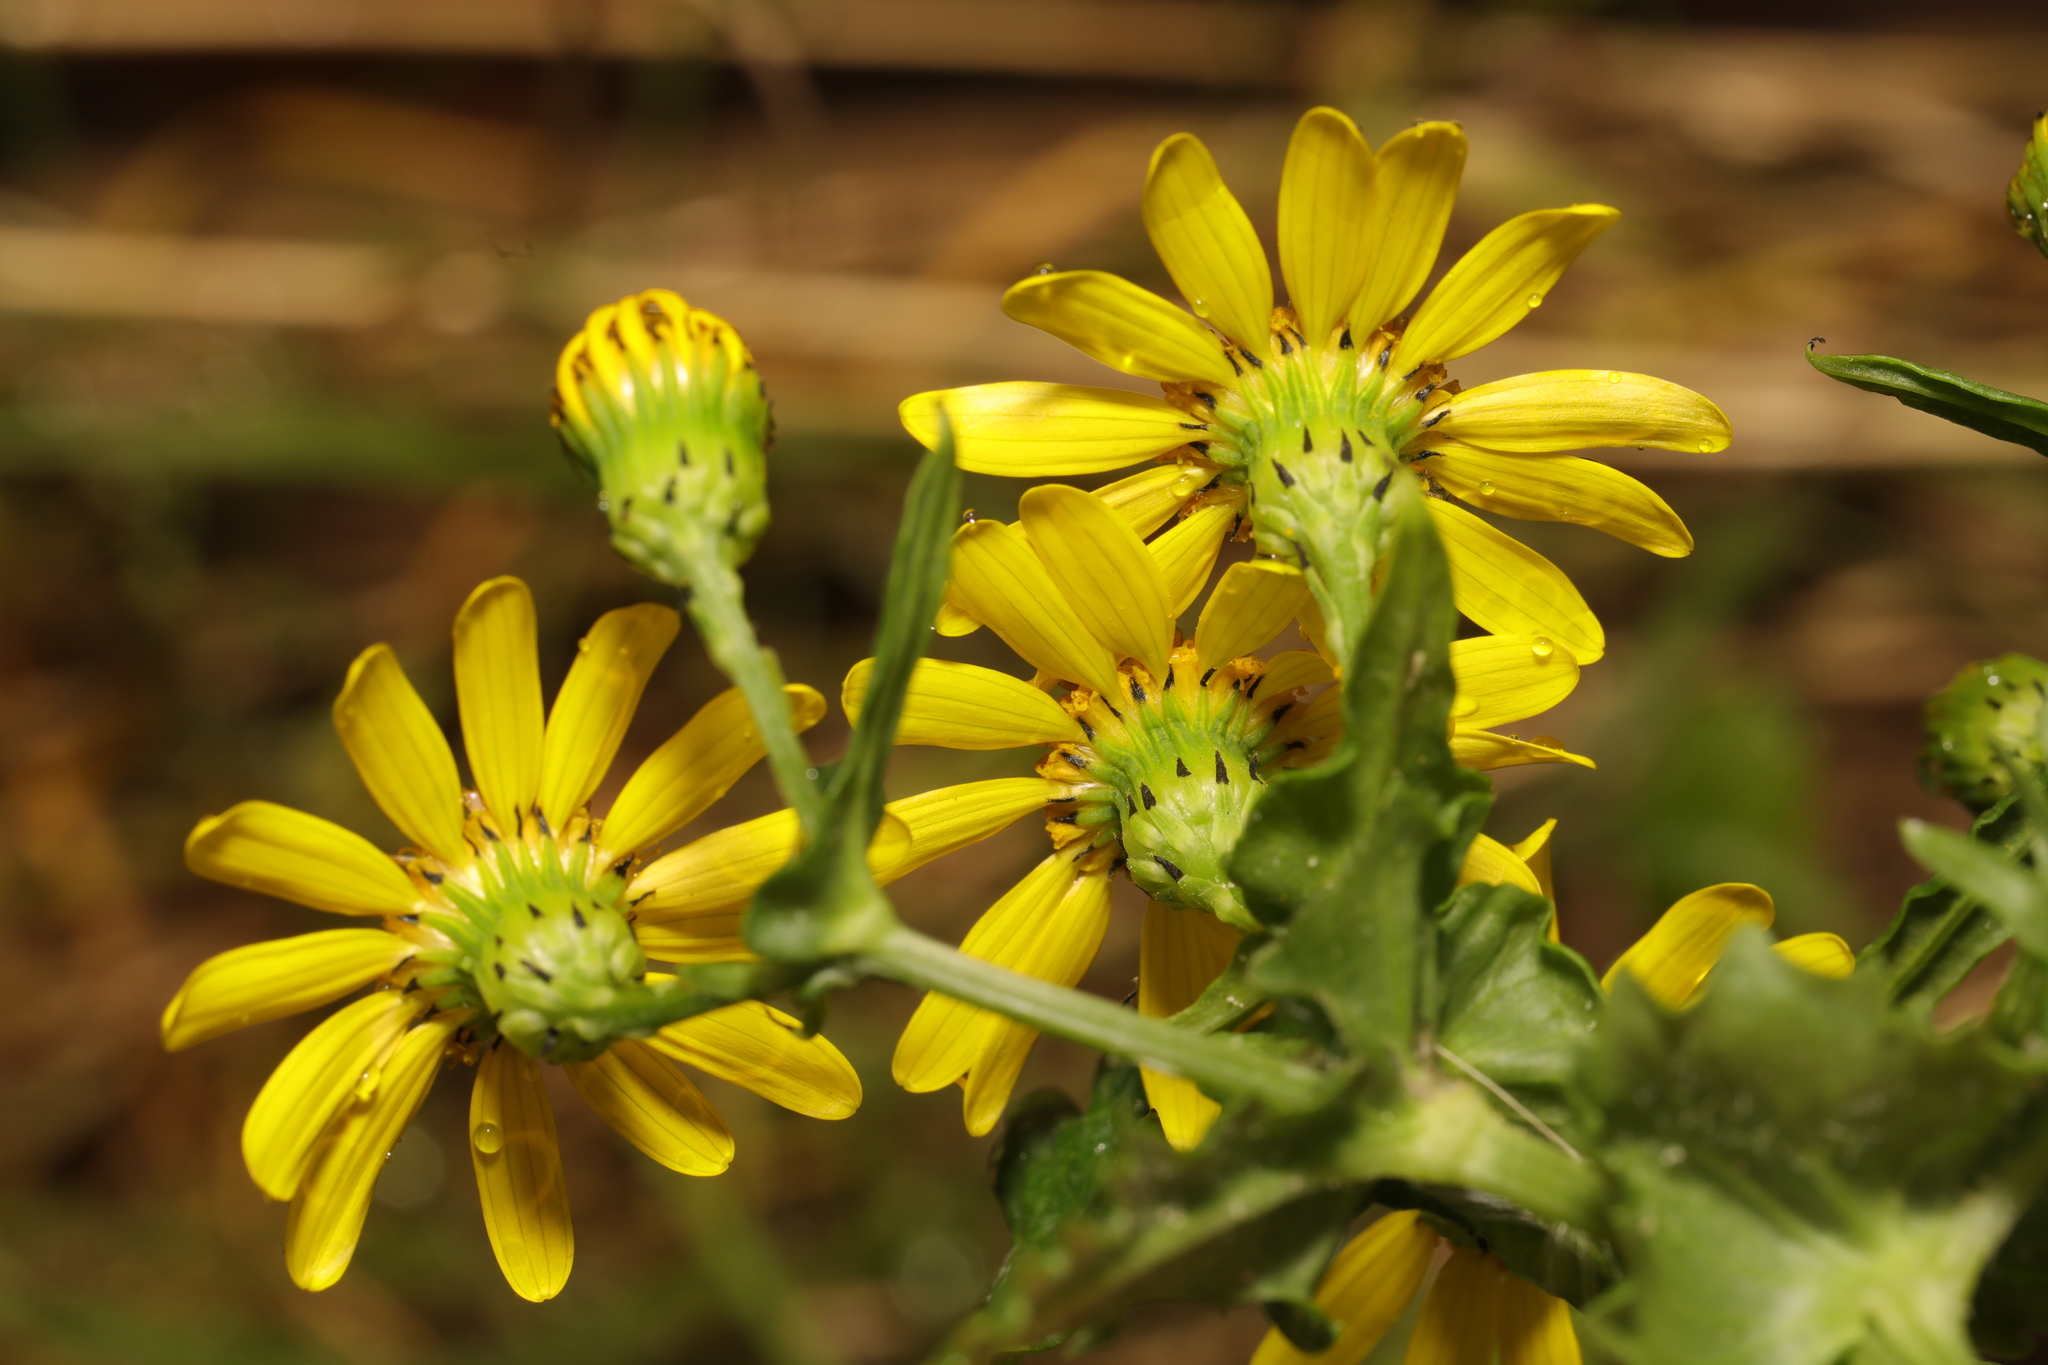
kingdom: Plantae
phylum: Tracheophyta
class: Magnoliopsida
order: Asterales
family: Asteraceae
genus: Senecio
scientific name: Senecio squalidus
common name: Oxford ragwort
